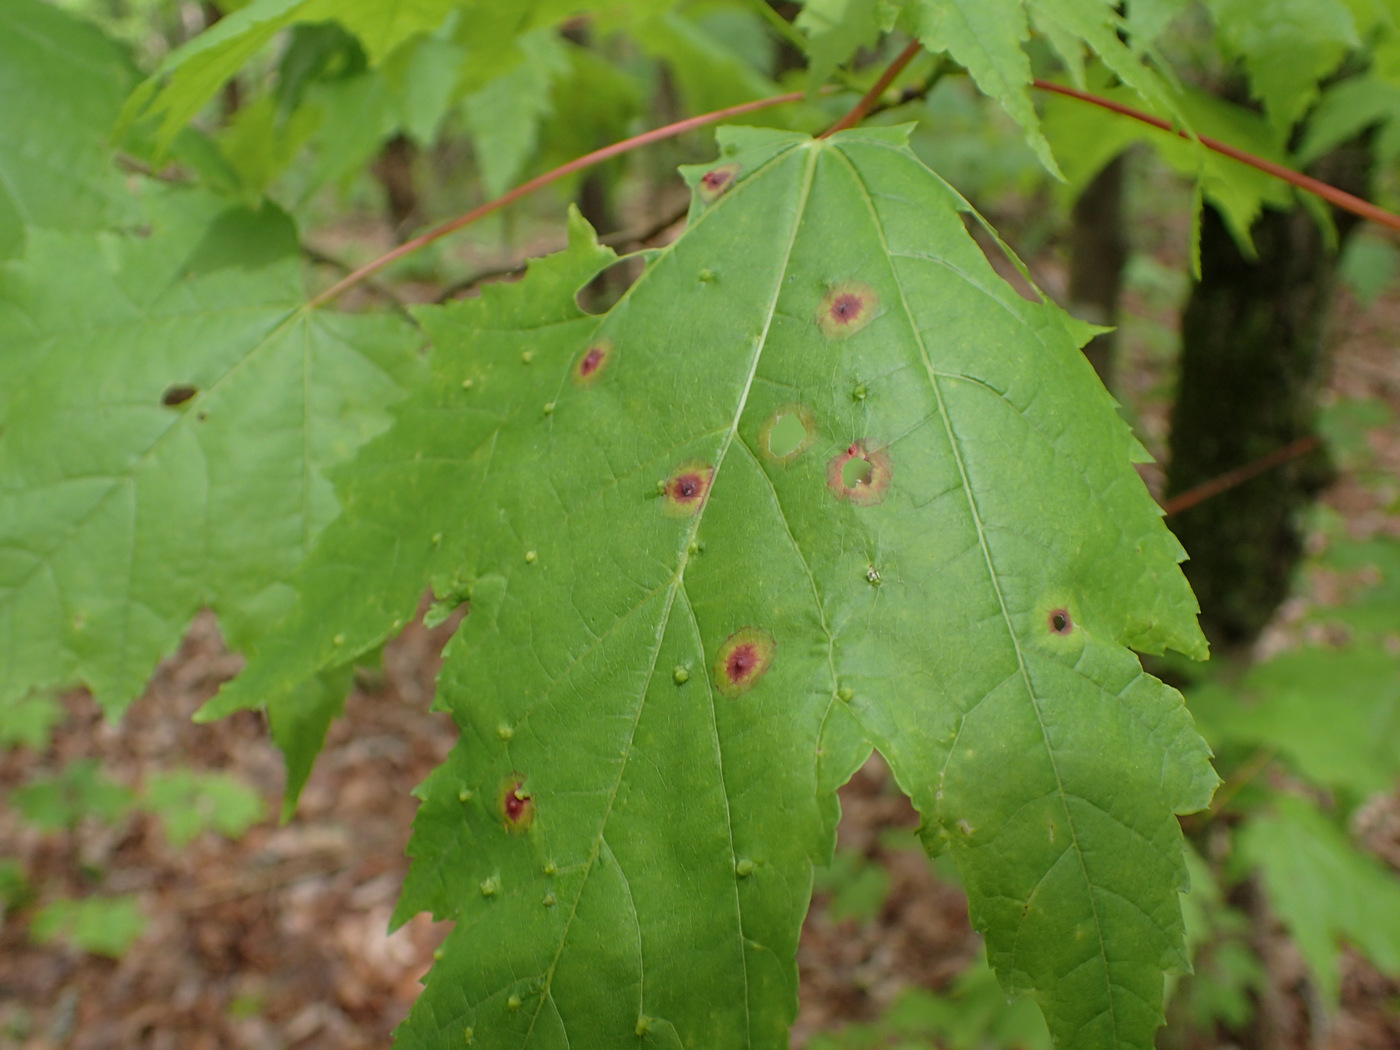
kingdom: Animalia
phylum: Arthropoda
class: Insecta
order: Diptera
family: Cecidomyiidae
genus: Acericecis
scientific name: Acericecis ocellaris
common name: Ocellate gall midge
